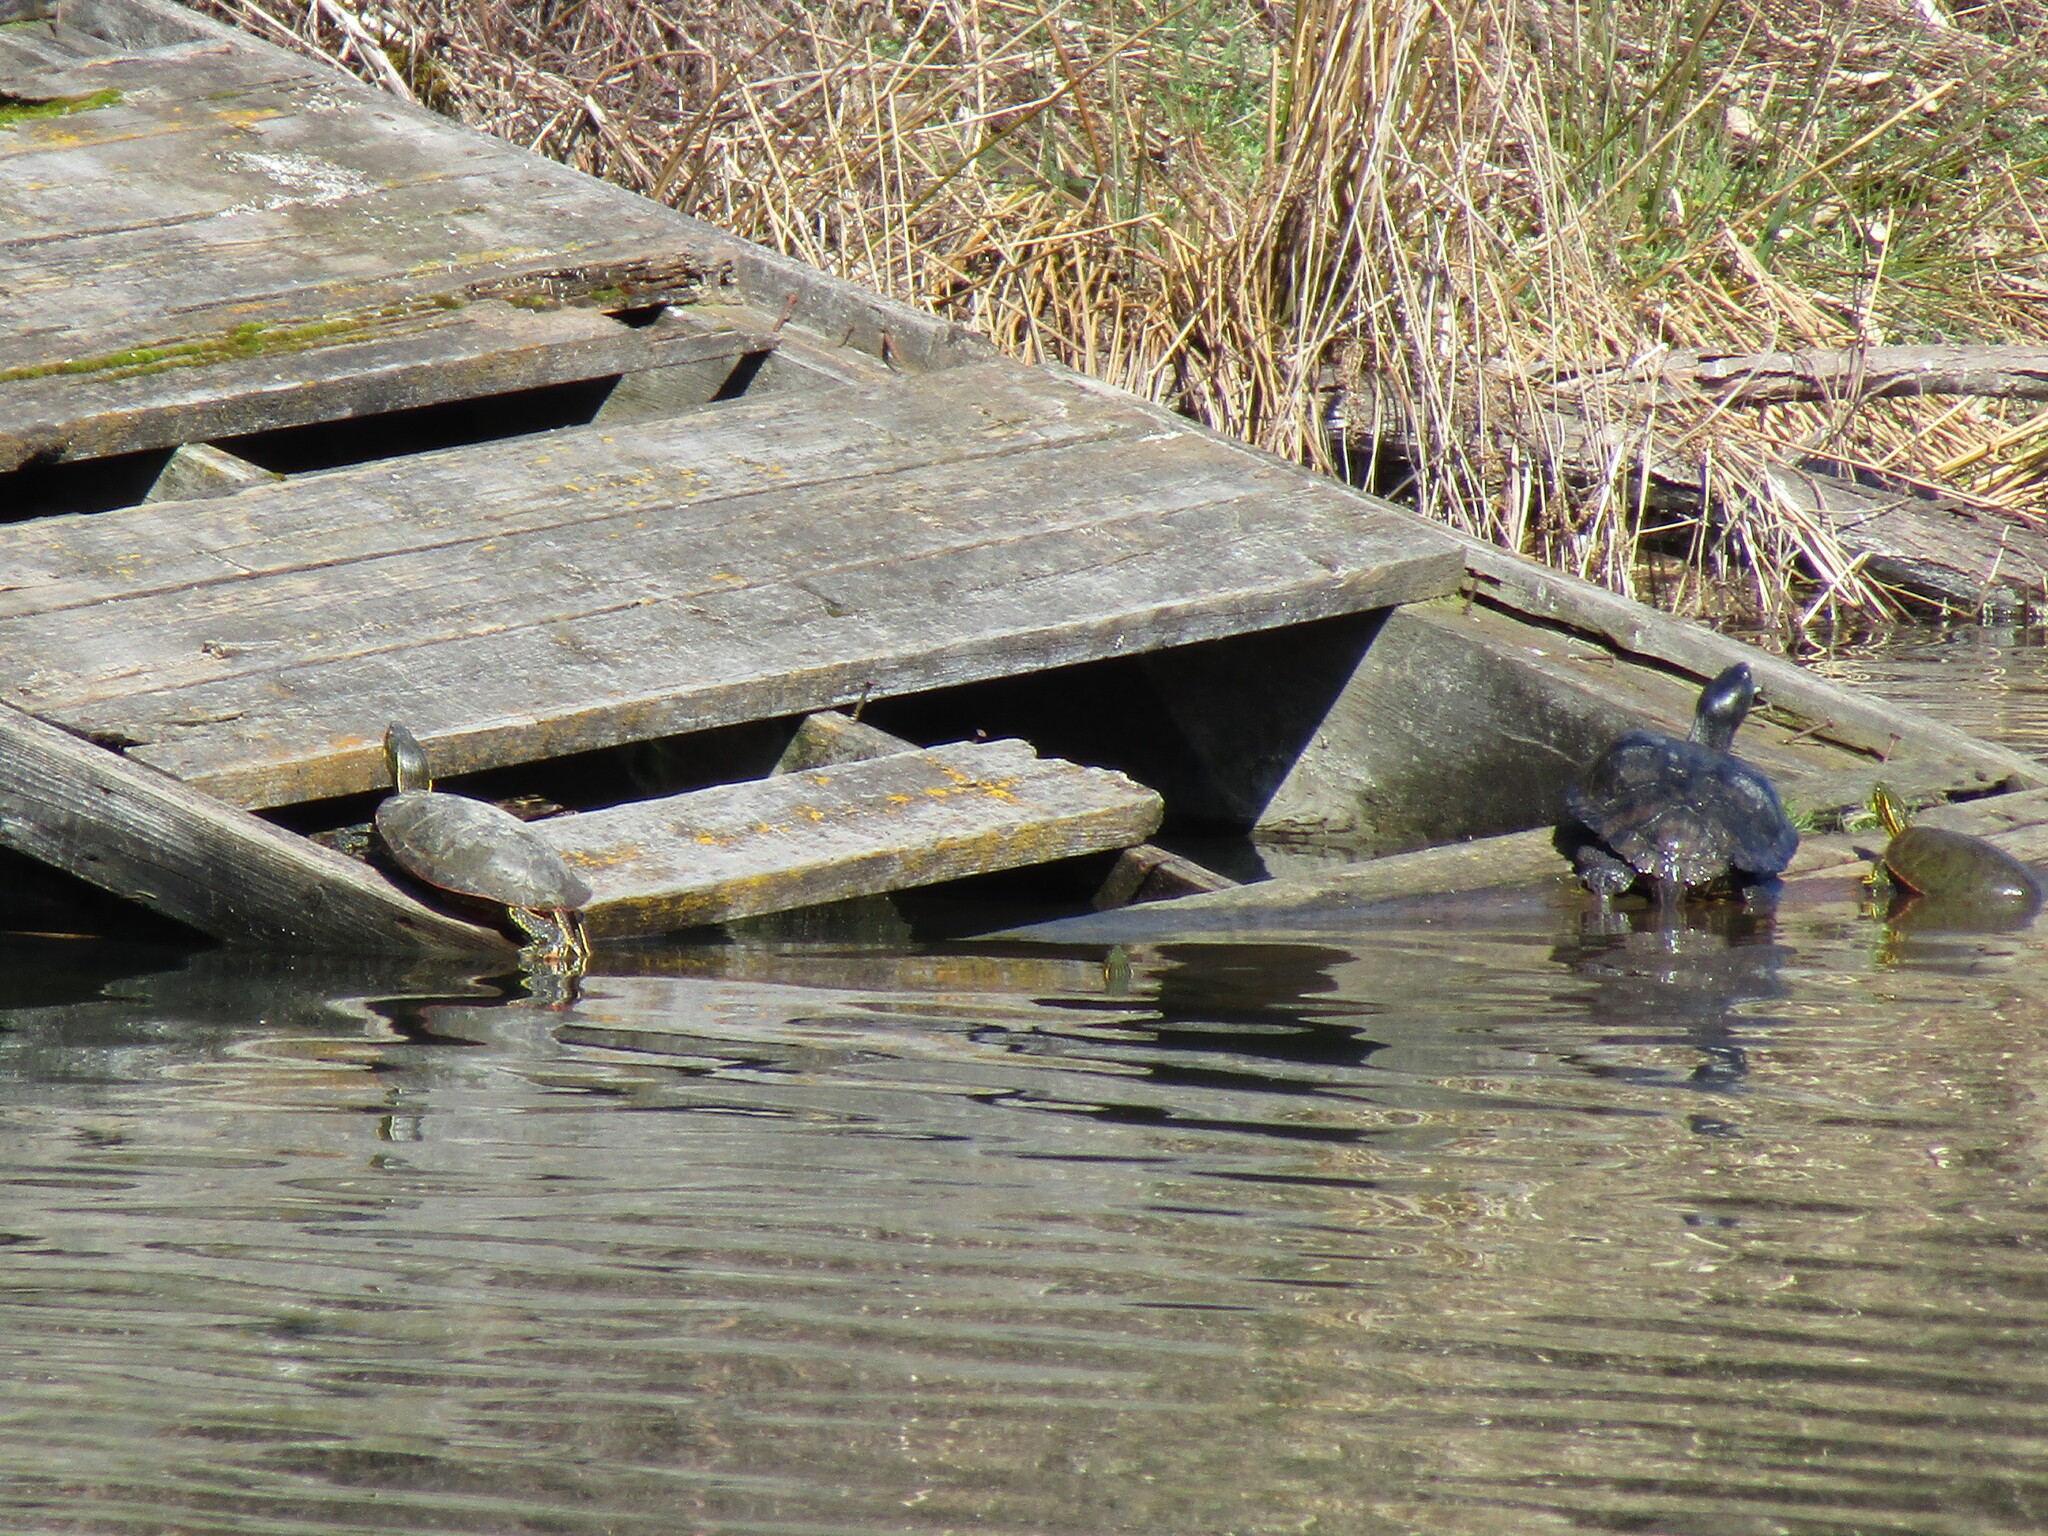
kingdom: Animalia
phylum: Chordata
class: Testudines
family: Emydidae
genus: Trachemys
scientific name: Trachemys scripta
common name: Slider
